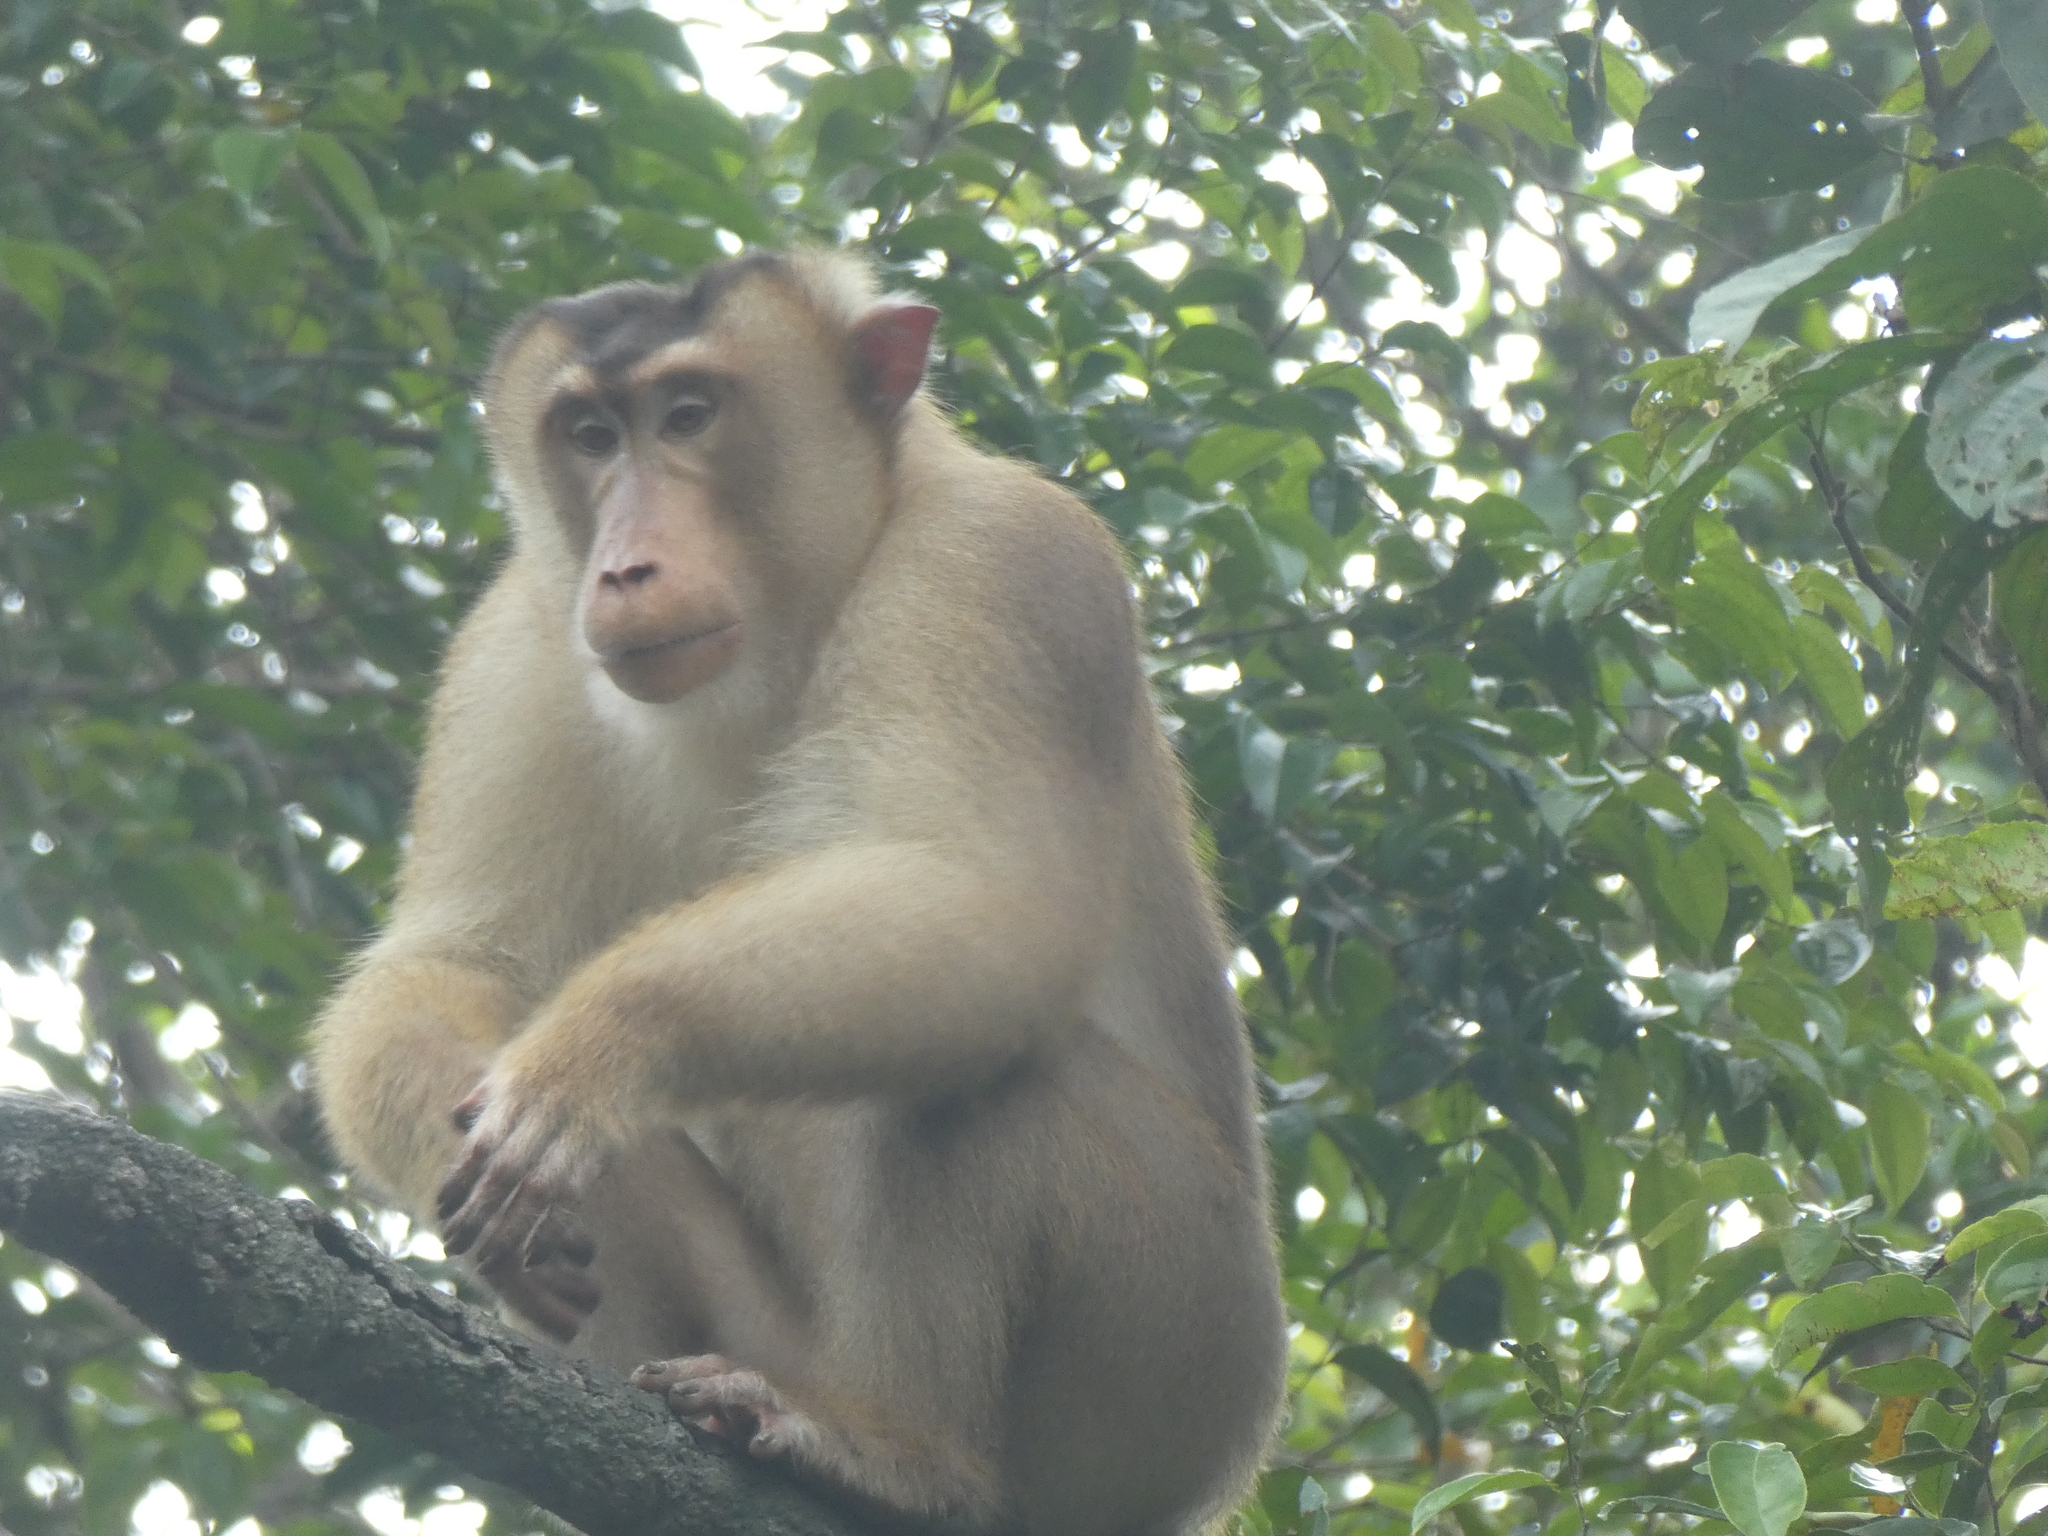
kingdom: Animalia
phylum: Chordata
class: Mammalia
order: Primates
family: Cercopithecidae
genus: Macaca
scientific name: Macaca nemestrina
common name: Southern pig-tailed macaque
